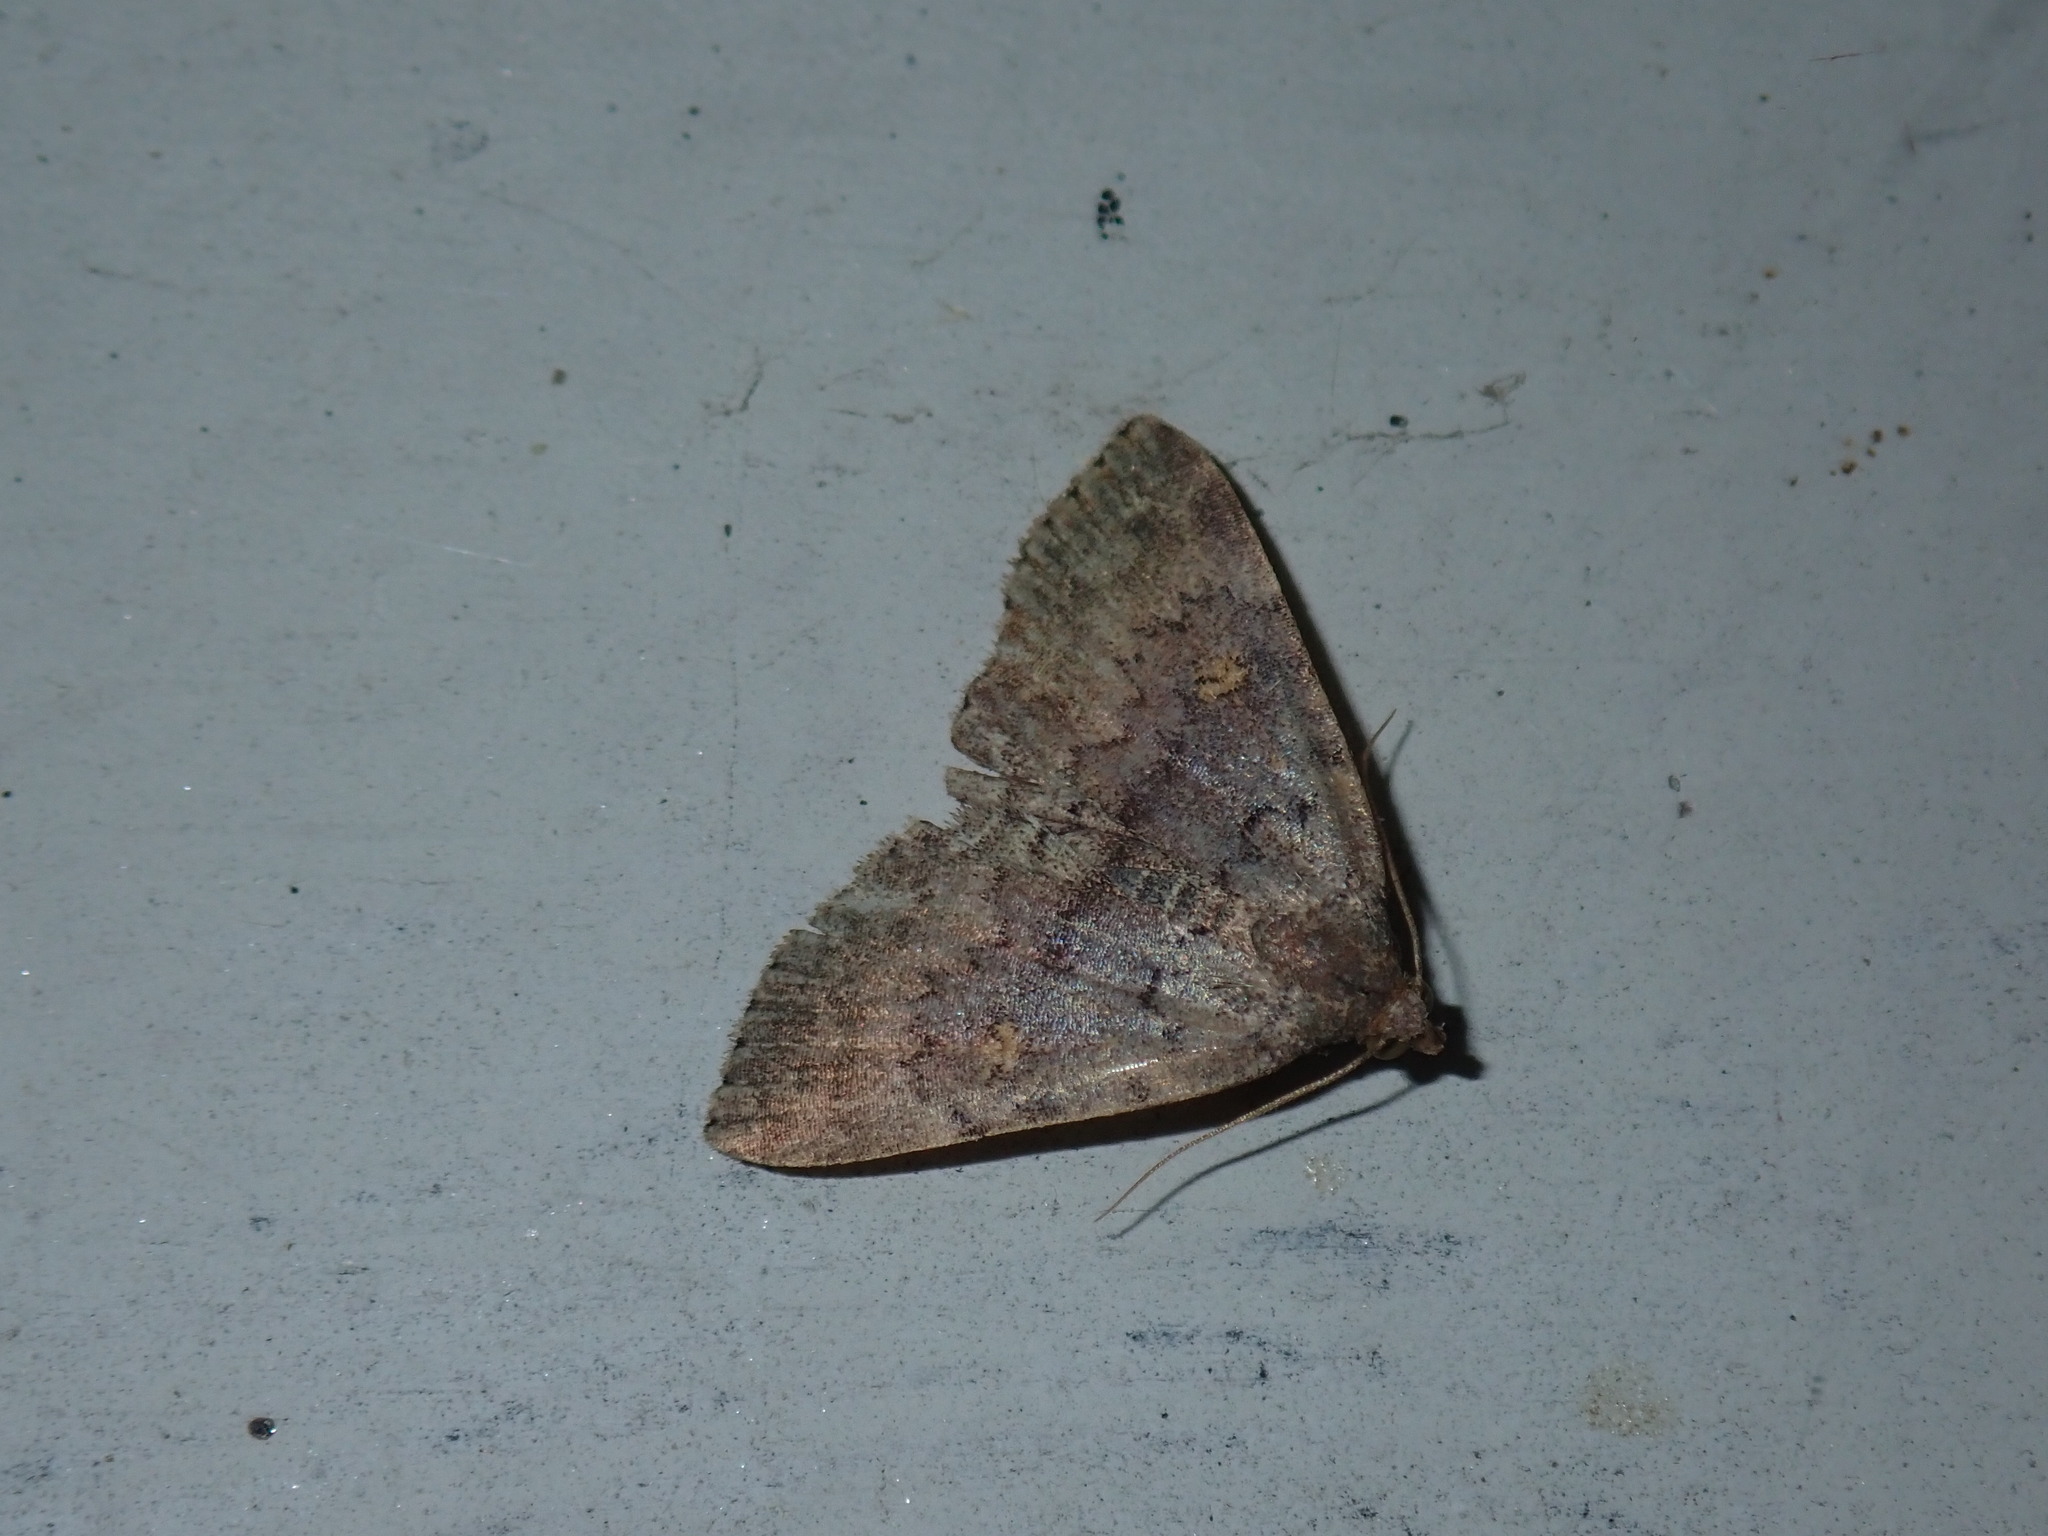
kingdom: Animalia
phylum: Arthropoda
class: Insecta
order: Lepidoptera
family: Erebidae
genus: Idia
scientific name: Idia aemula
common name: Common idia moth
